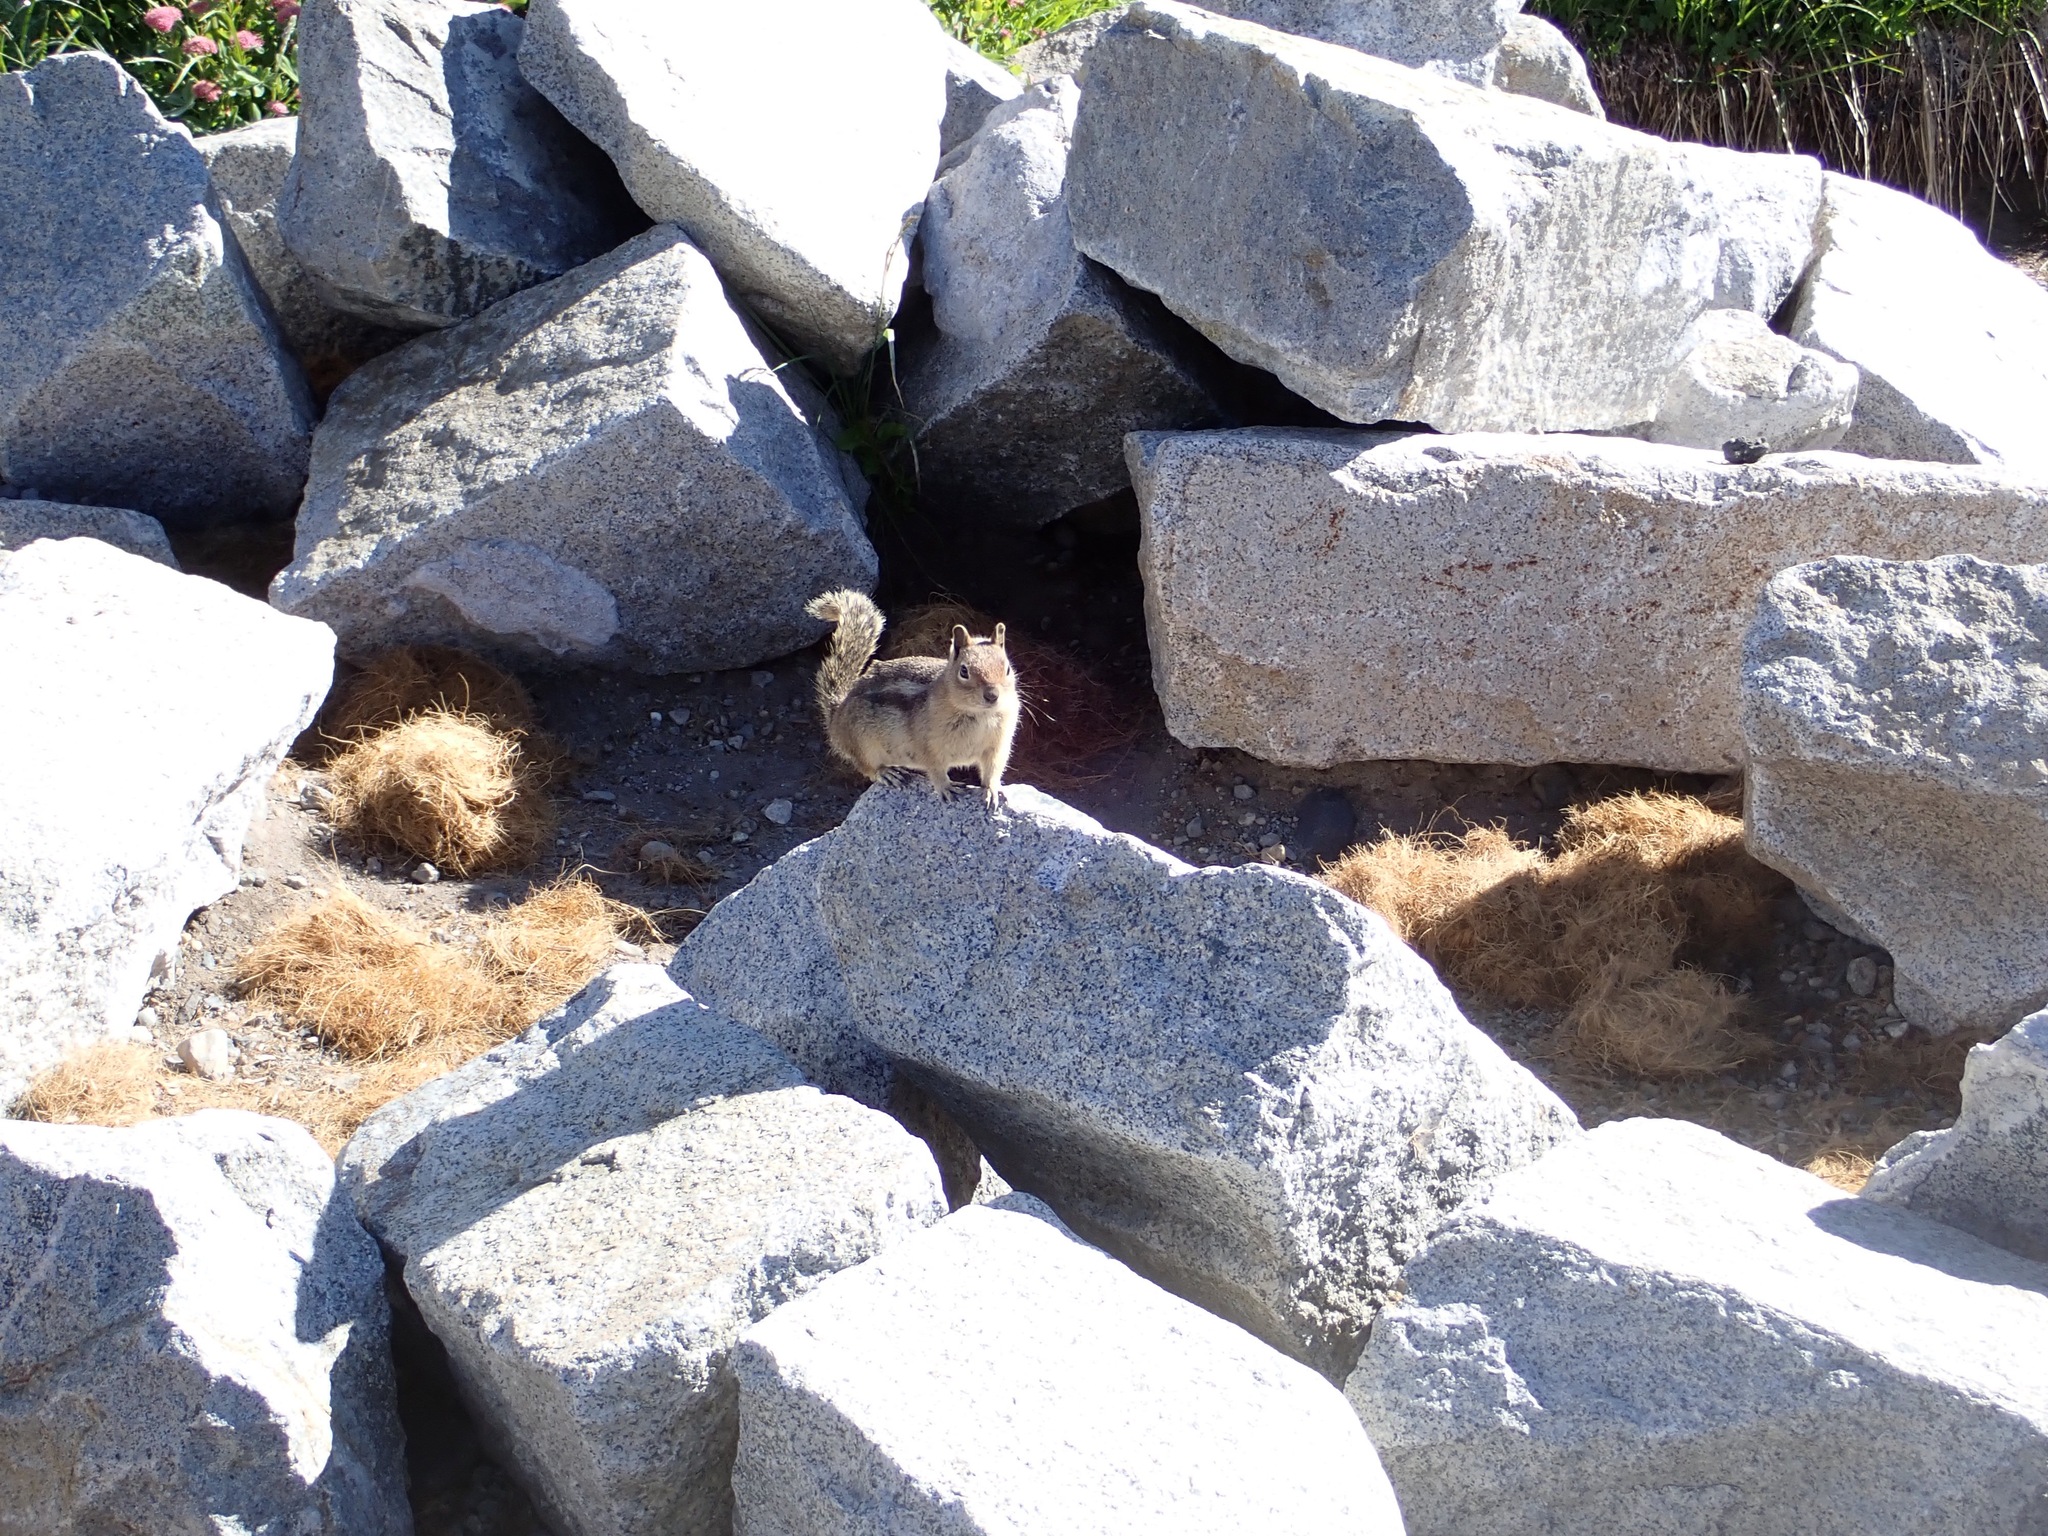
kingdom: Animalia
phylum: Chordata
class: Mammalia
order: Rodentia
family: Sciuridae
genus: Callospermophilus
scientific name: Callospermophilus saturatus
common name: Cascade golden-mantled ground squirrel
